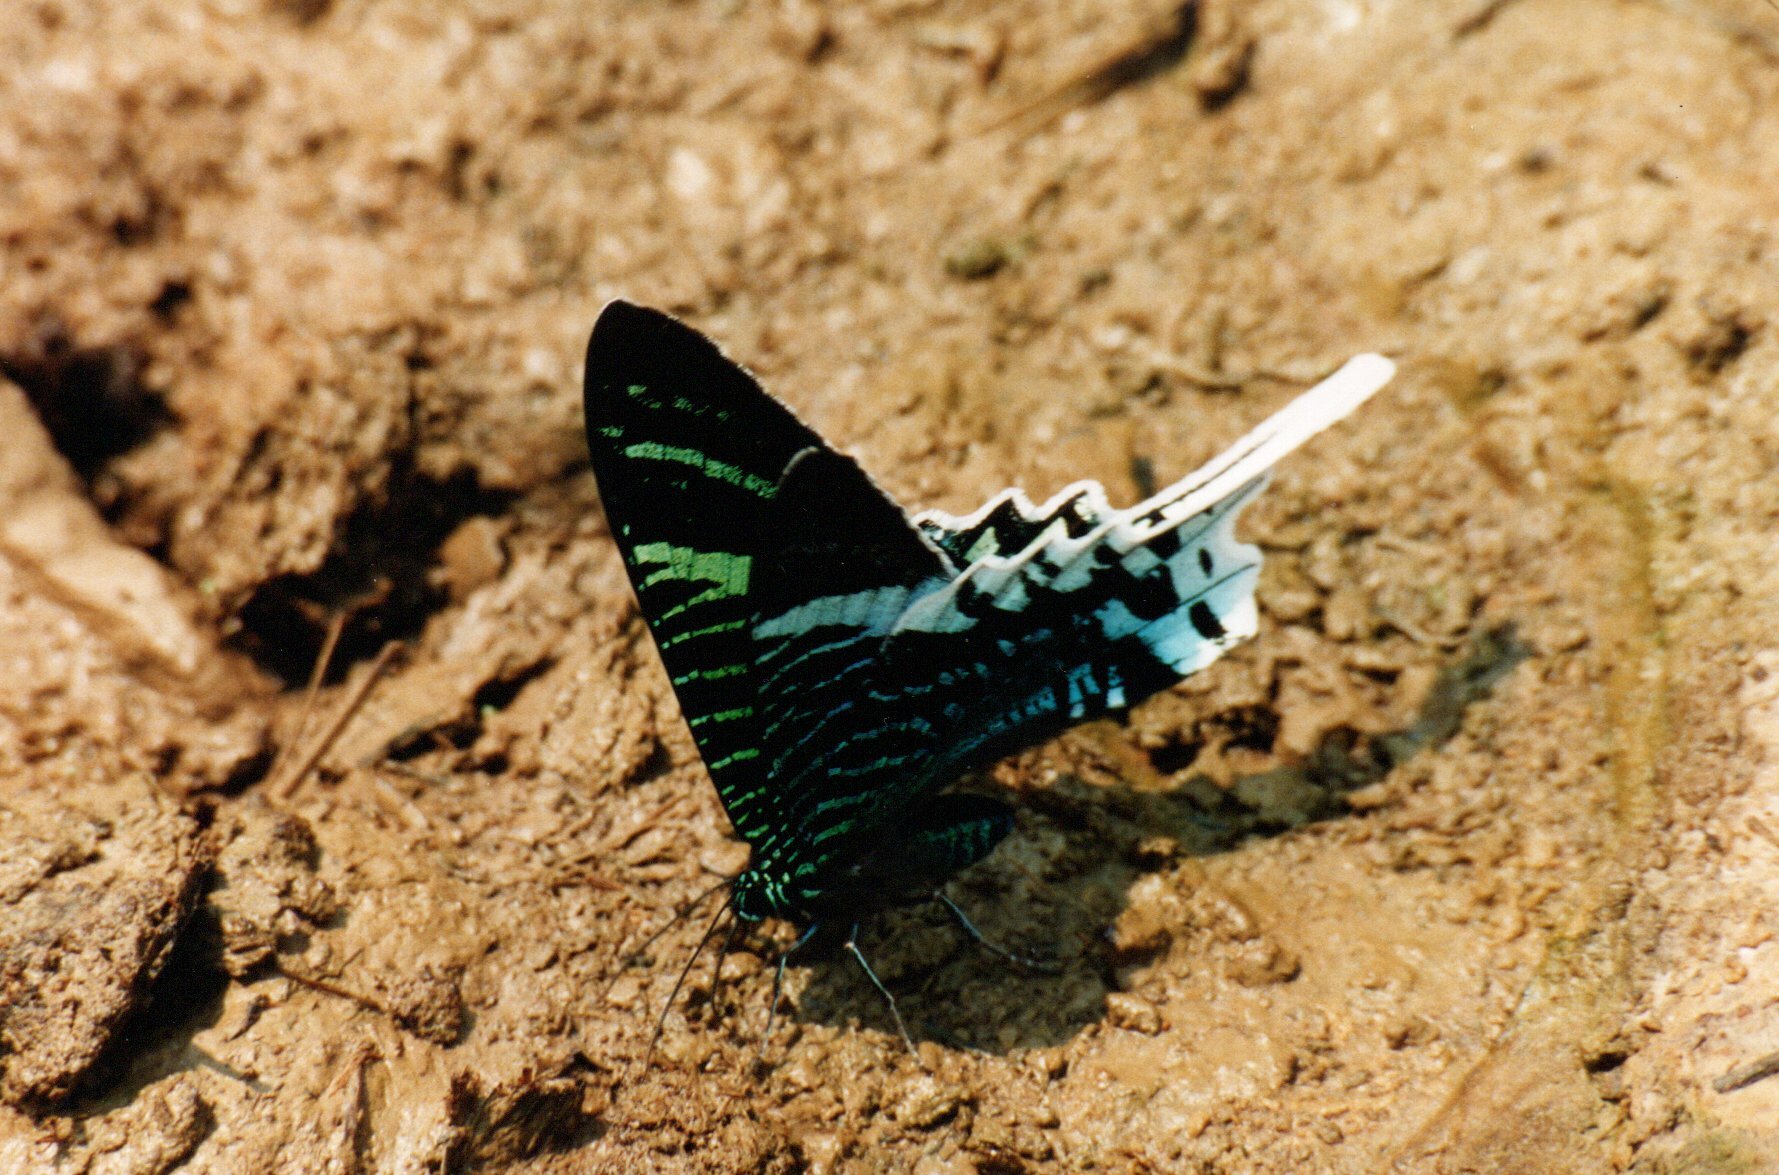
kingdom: Animalia
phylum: Arthropoda
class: Insecta
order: Lepidoptera
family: Uraniidae
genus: Urania
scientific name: Urania leilus
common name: Peacock moth
